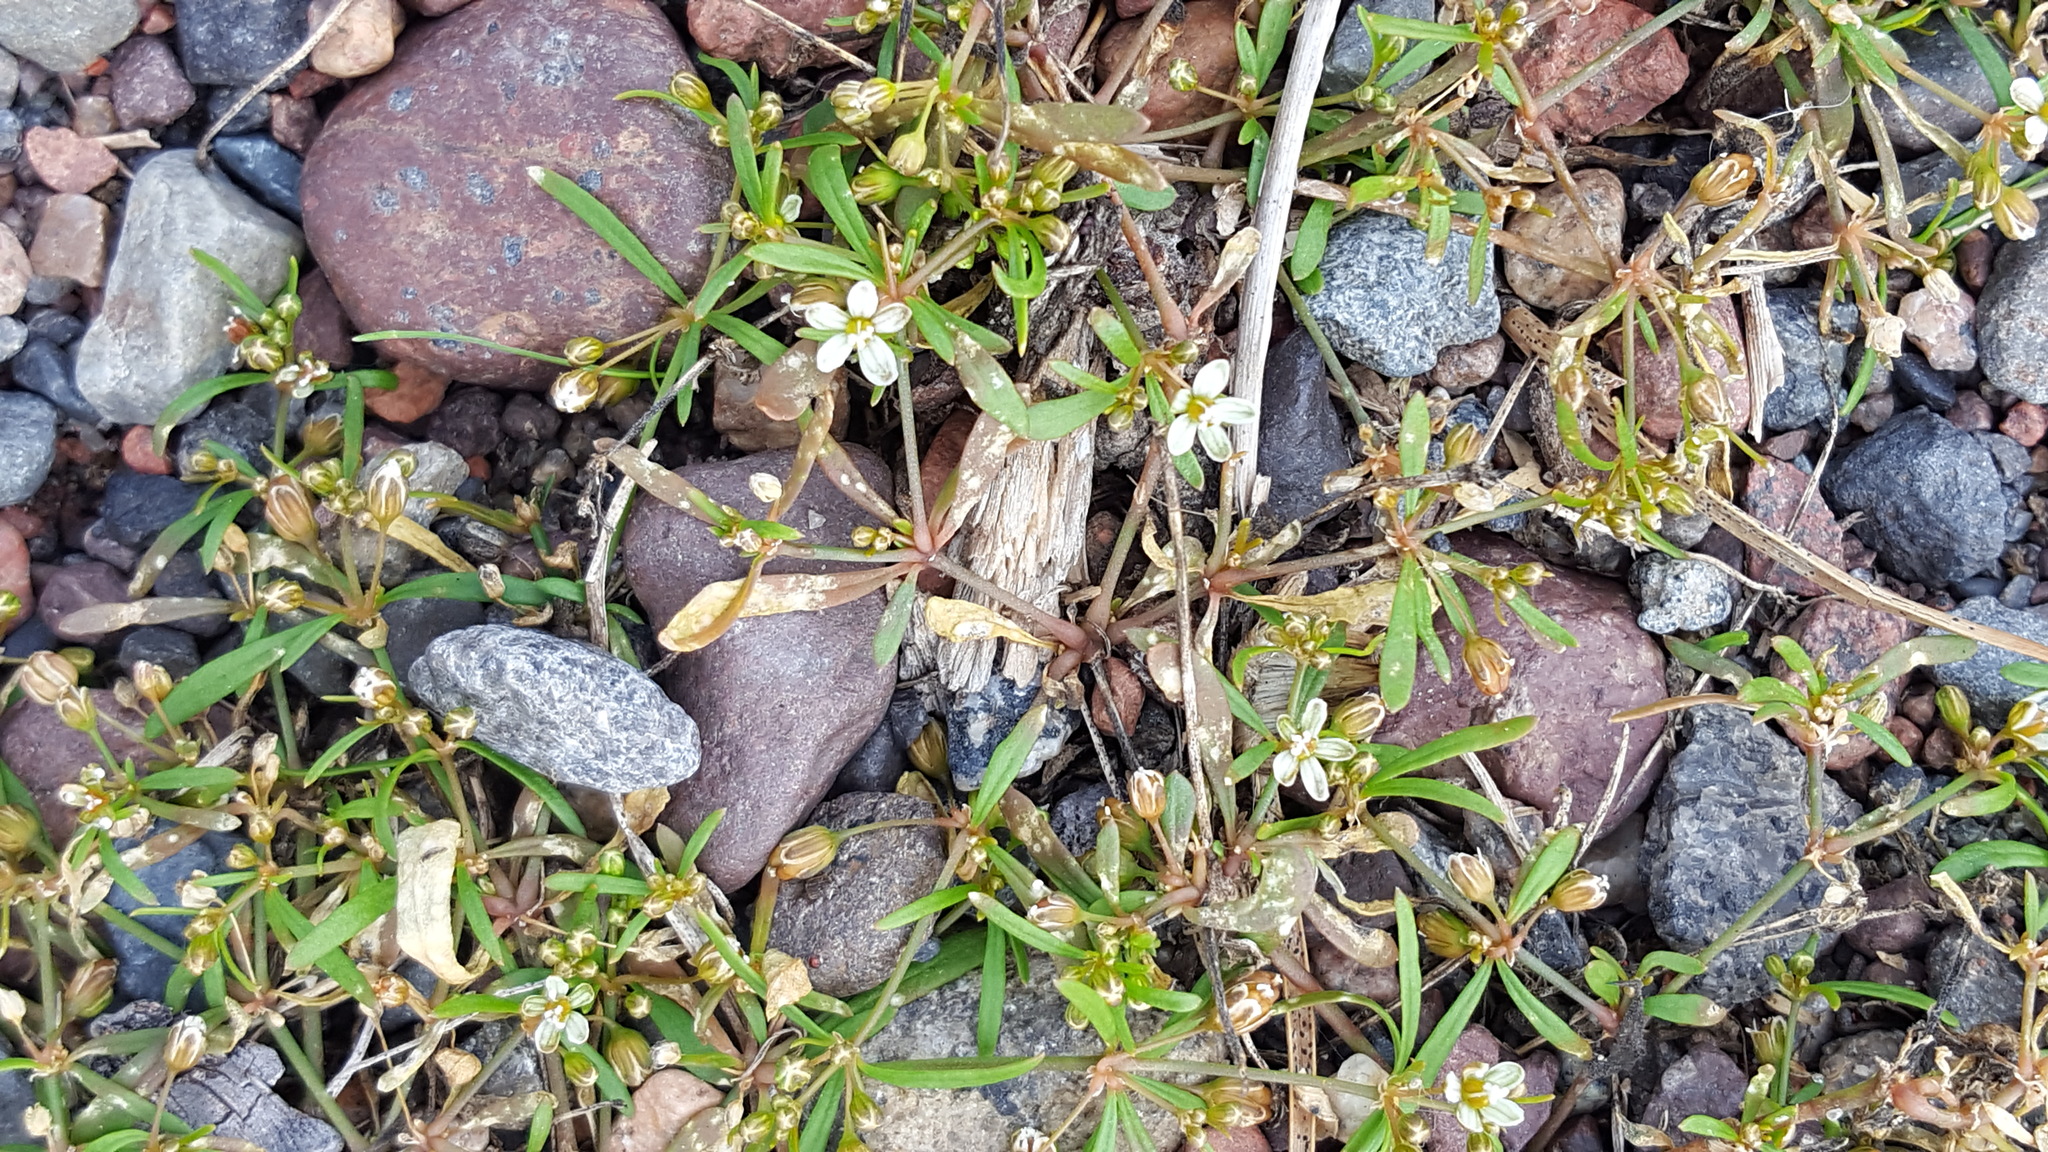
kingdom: Plantae
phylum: Tracheophyta
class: Magnoliopsida
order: Caryophyllales
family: Molluginaceae
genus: Mollugo
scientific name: Mollugo verticillata
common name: Green carpetweed
